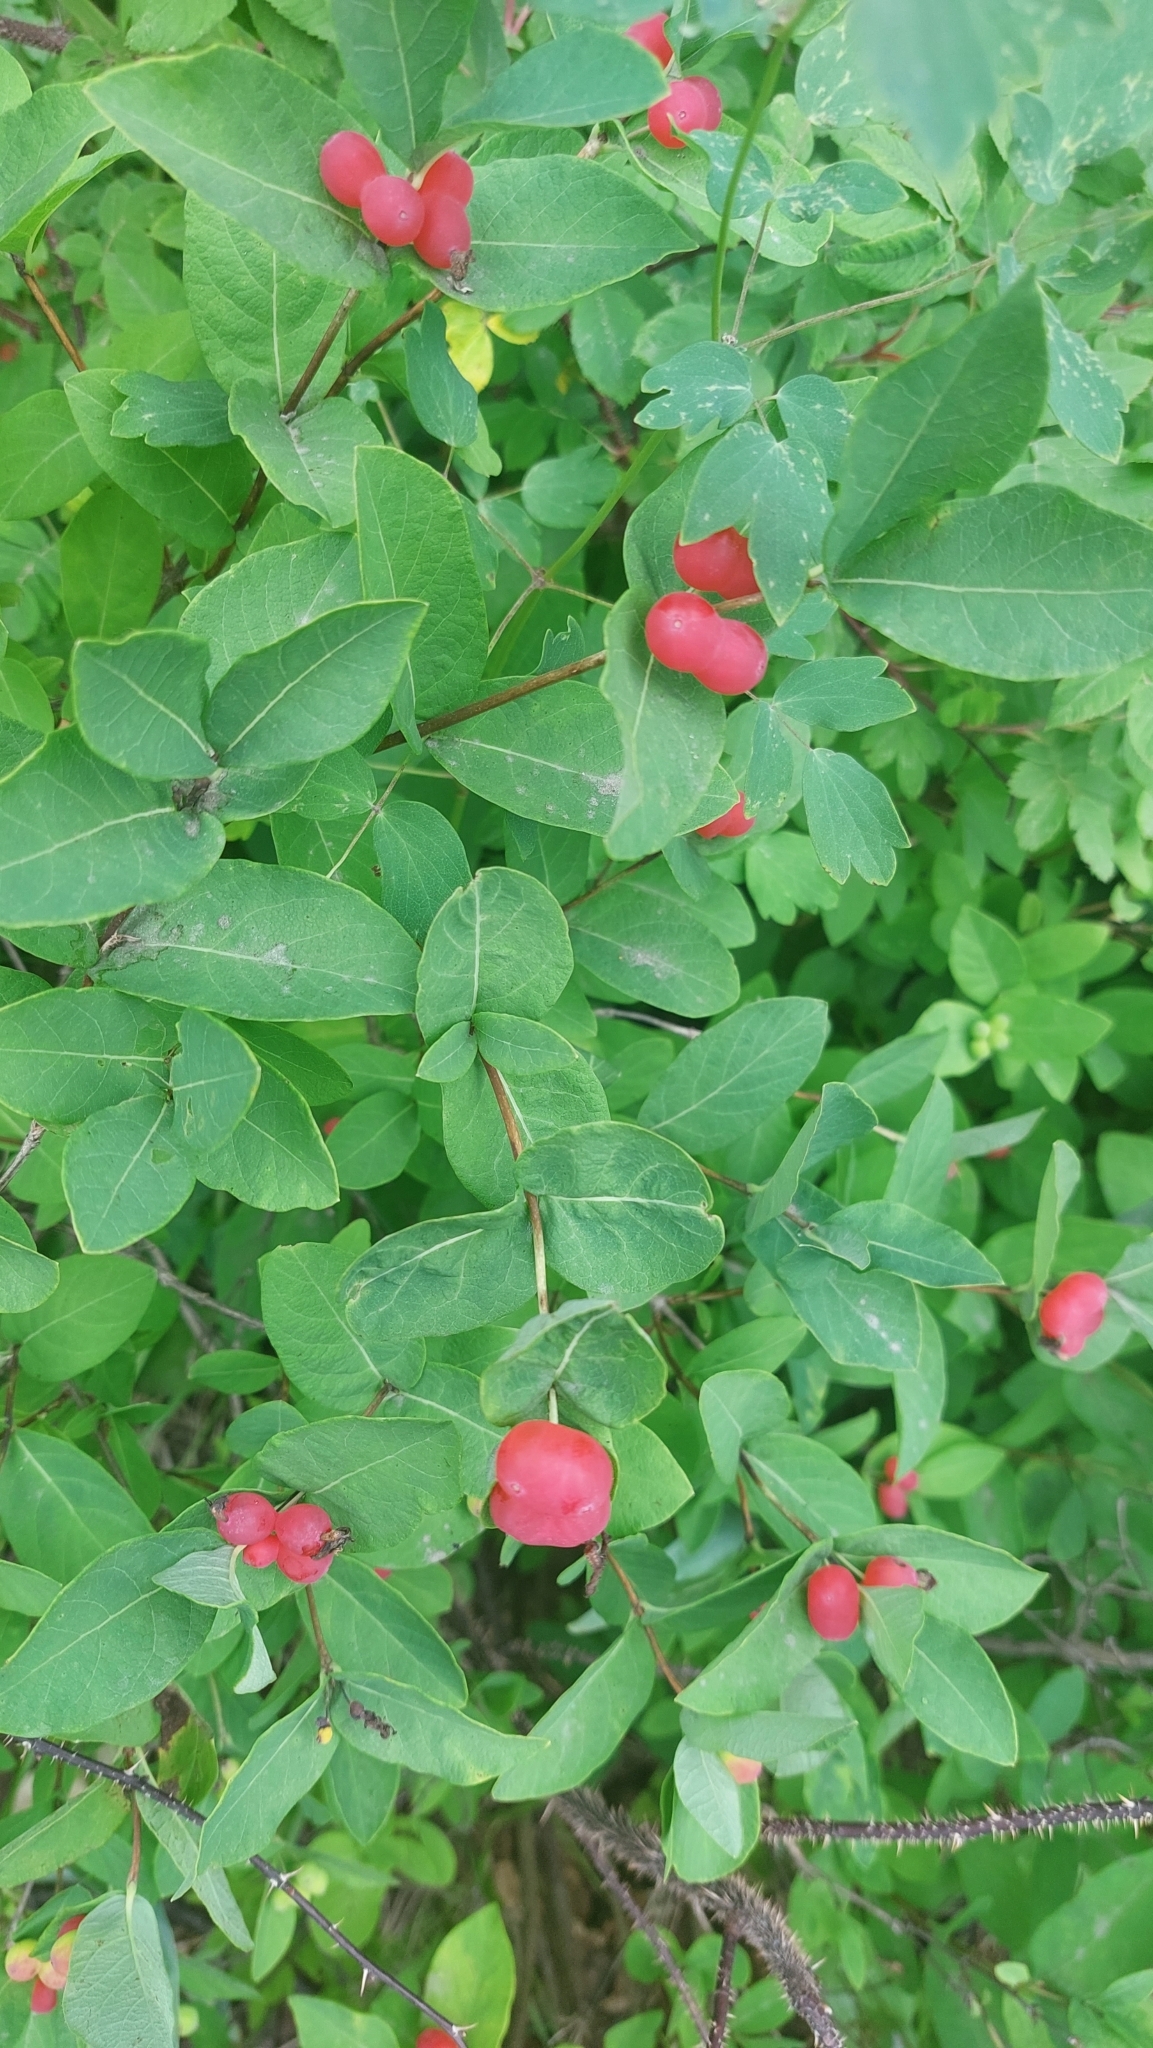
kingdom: Plantae
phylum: Tracheophyta
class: Magnoliopsida
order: Dipsacales
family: Caprifoliaceae
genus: Lonicera
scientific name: Lonicera chamissoi
